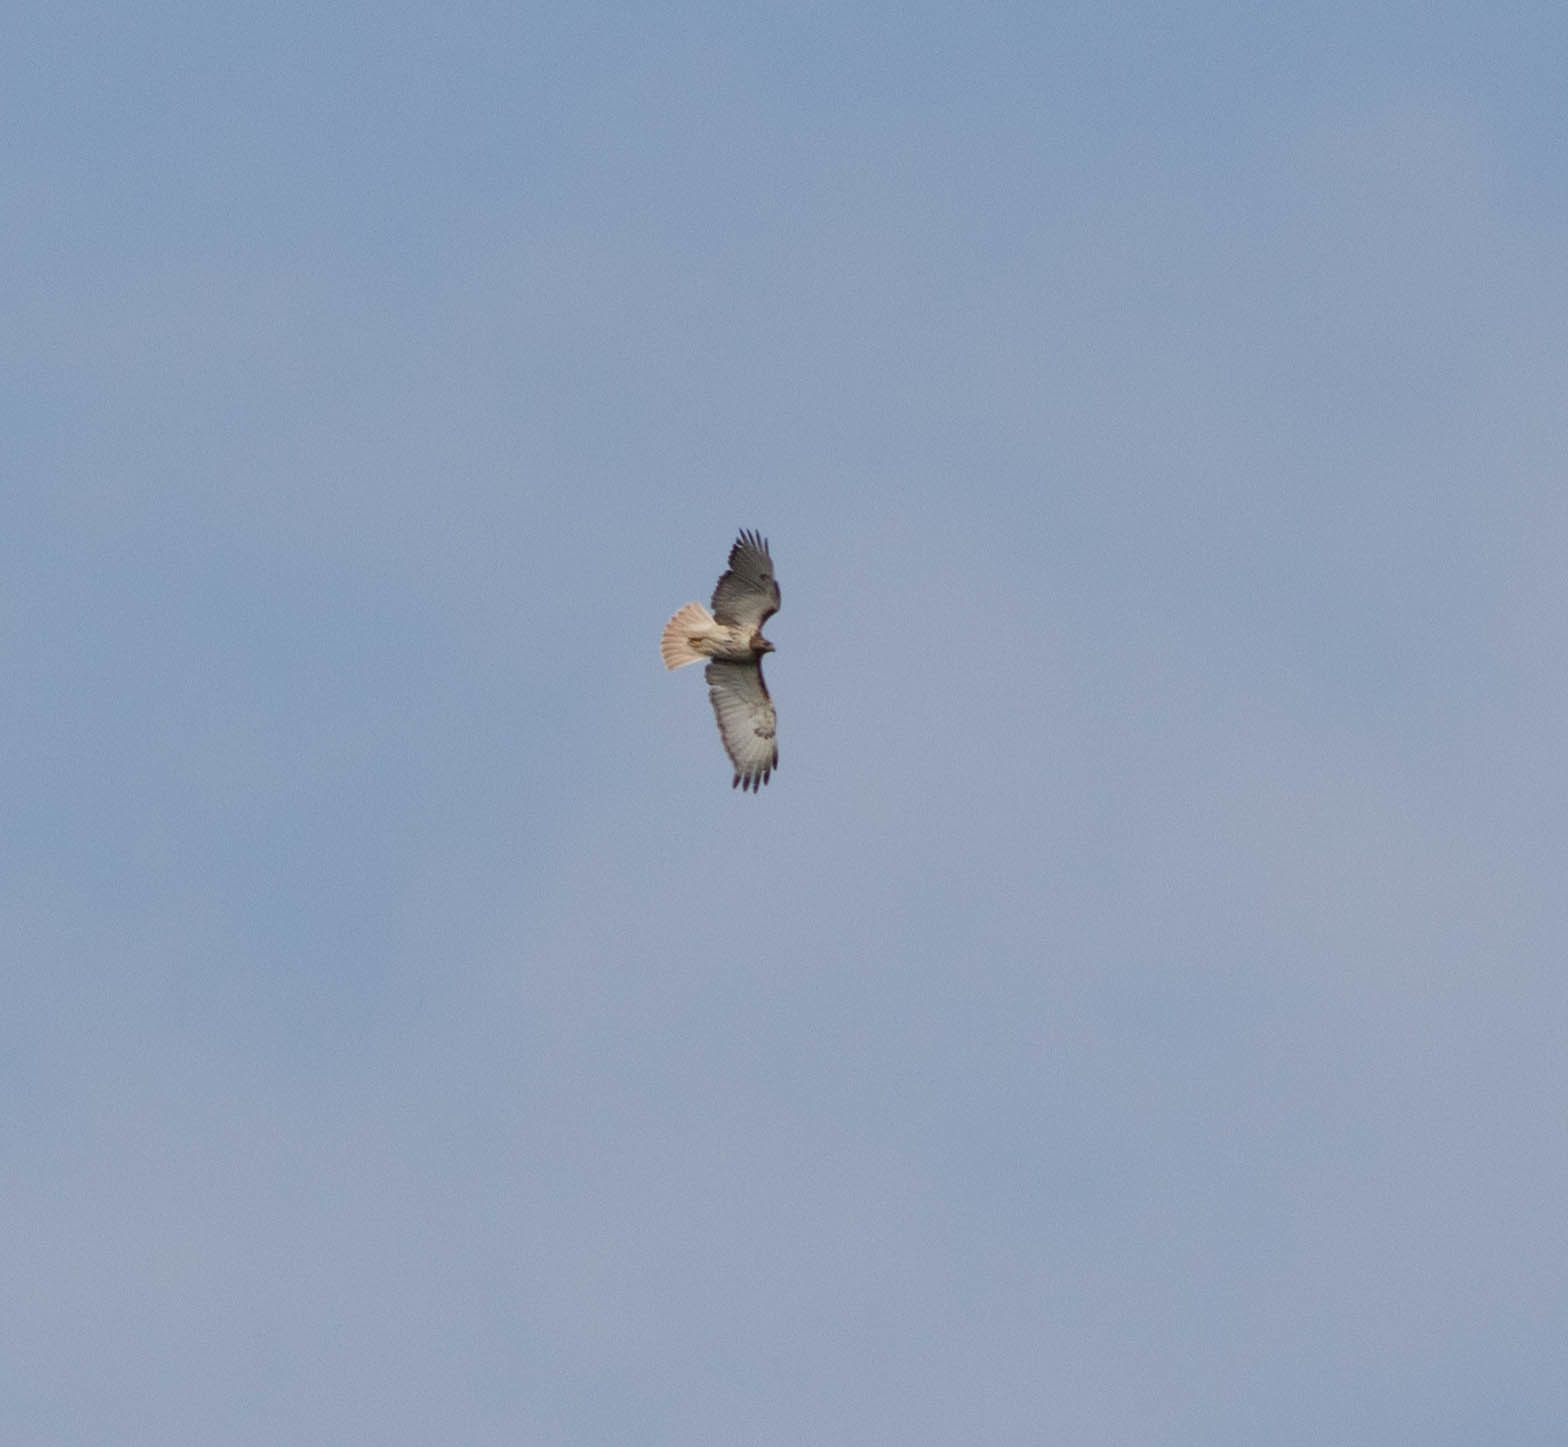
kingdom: Animalia
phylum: Chordata
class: Aves
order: Accipitriformes
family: Accipitridae
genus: Buteo
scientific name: Buteo jamaicensis
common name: Red-tailed hawk
